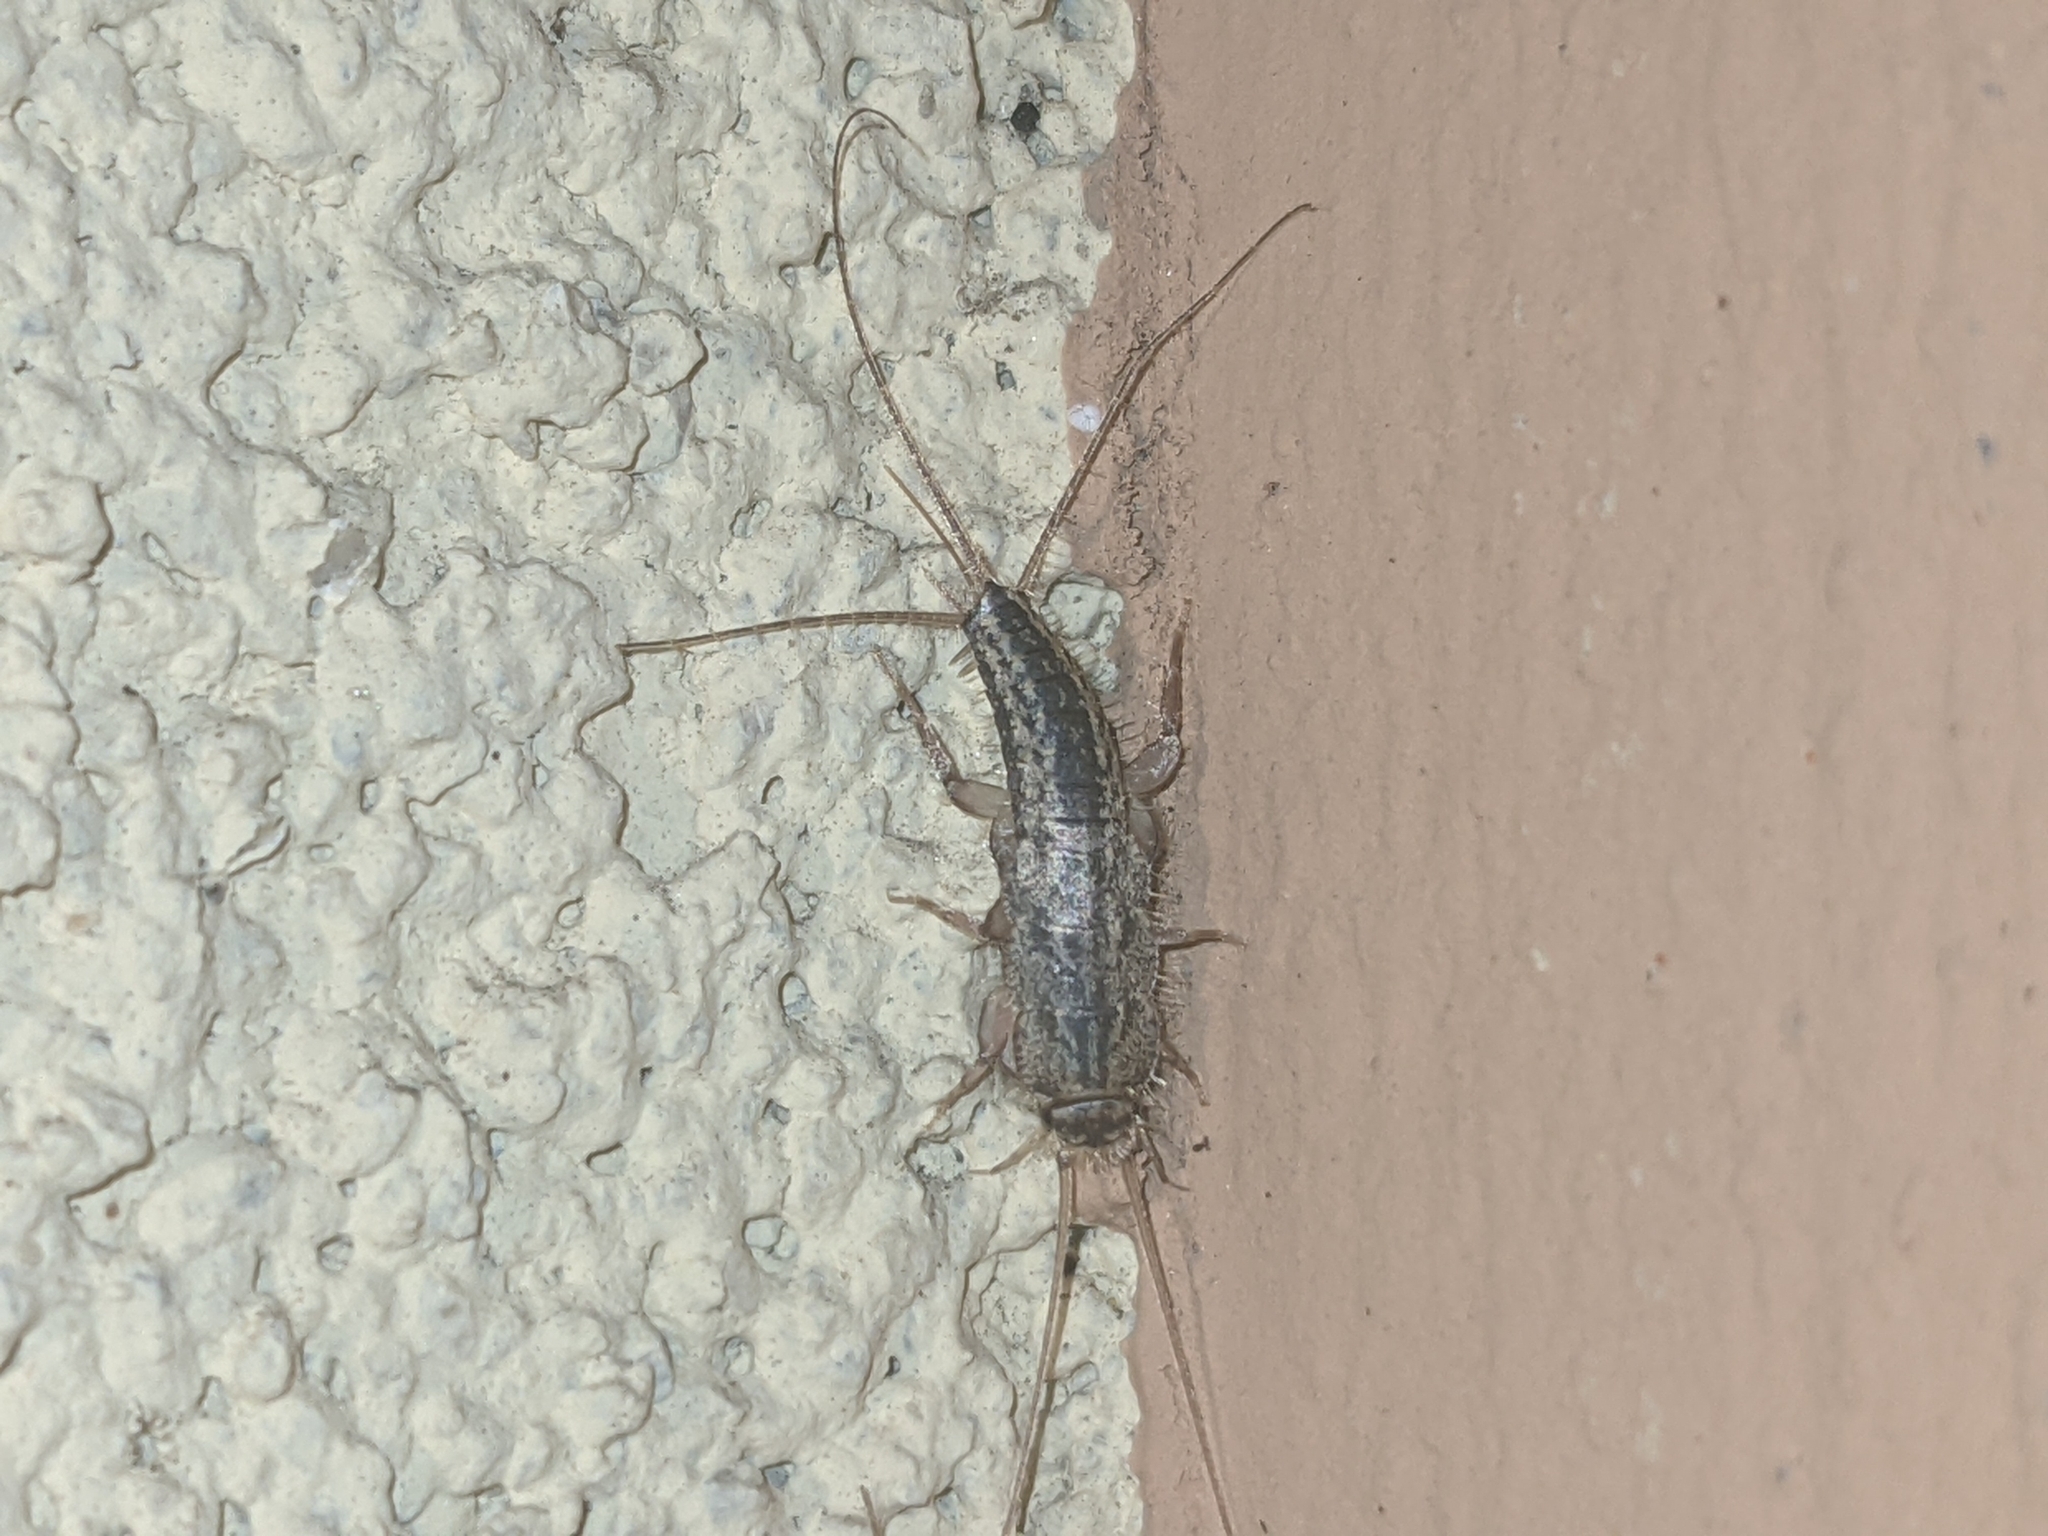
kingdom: Animalia
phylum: Arthropoda
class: Insecta
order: Zygentoma
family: Lepismatidae
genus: Ctenolepisma
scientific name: Ctenolepisma lineata
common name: Four-lined silverfish
